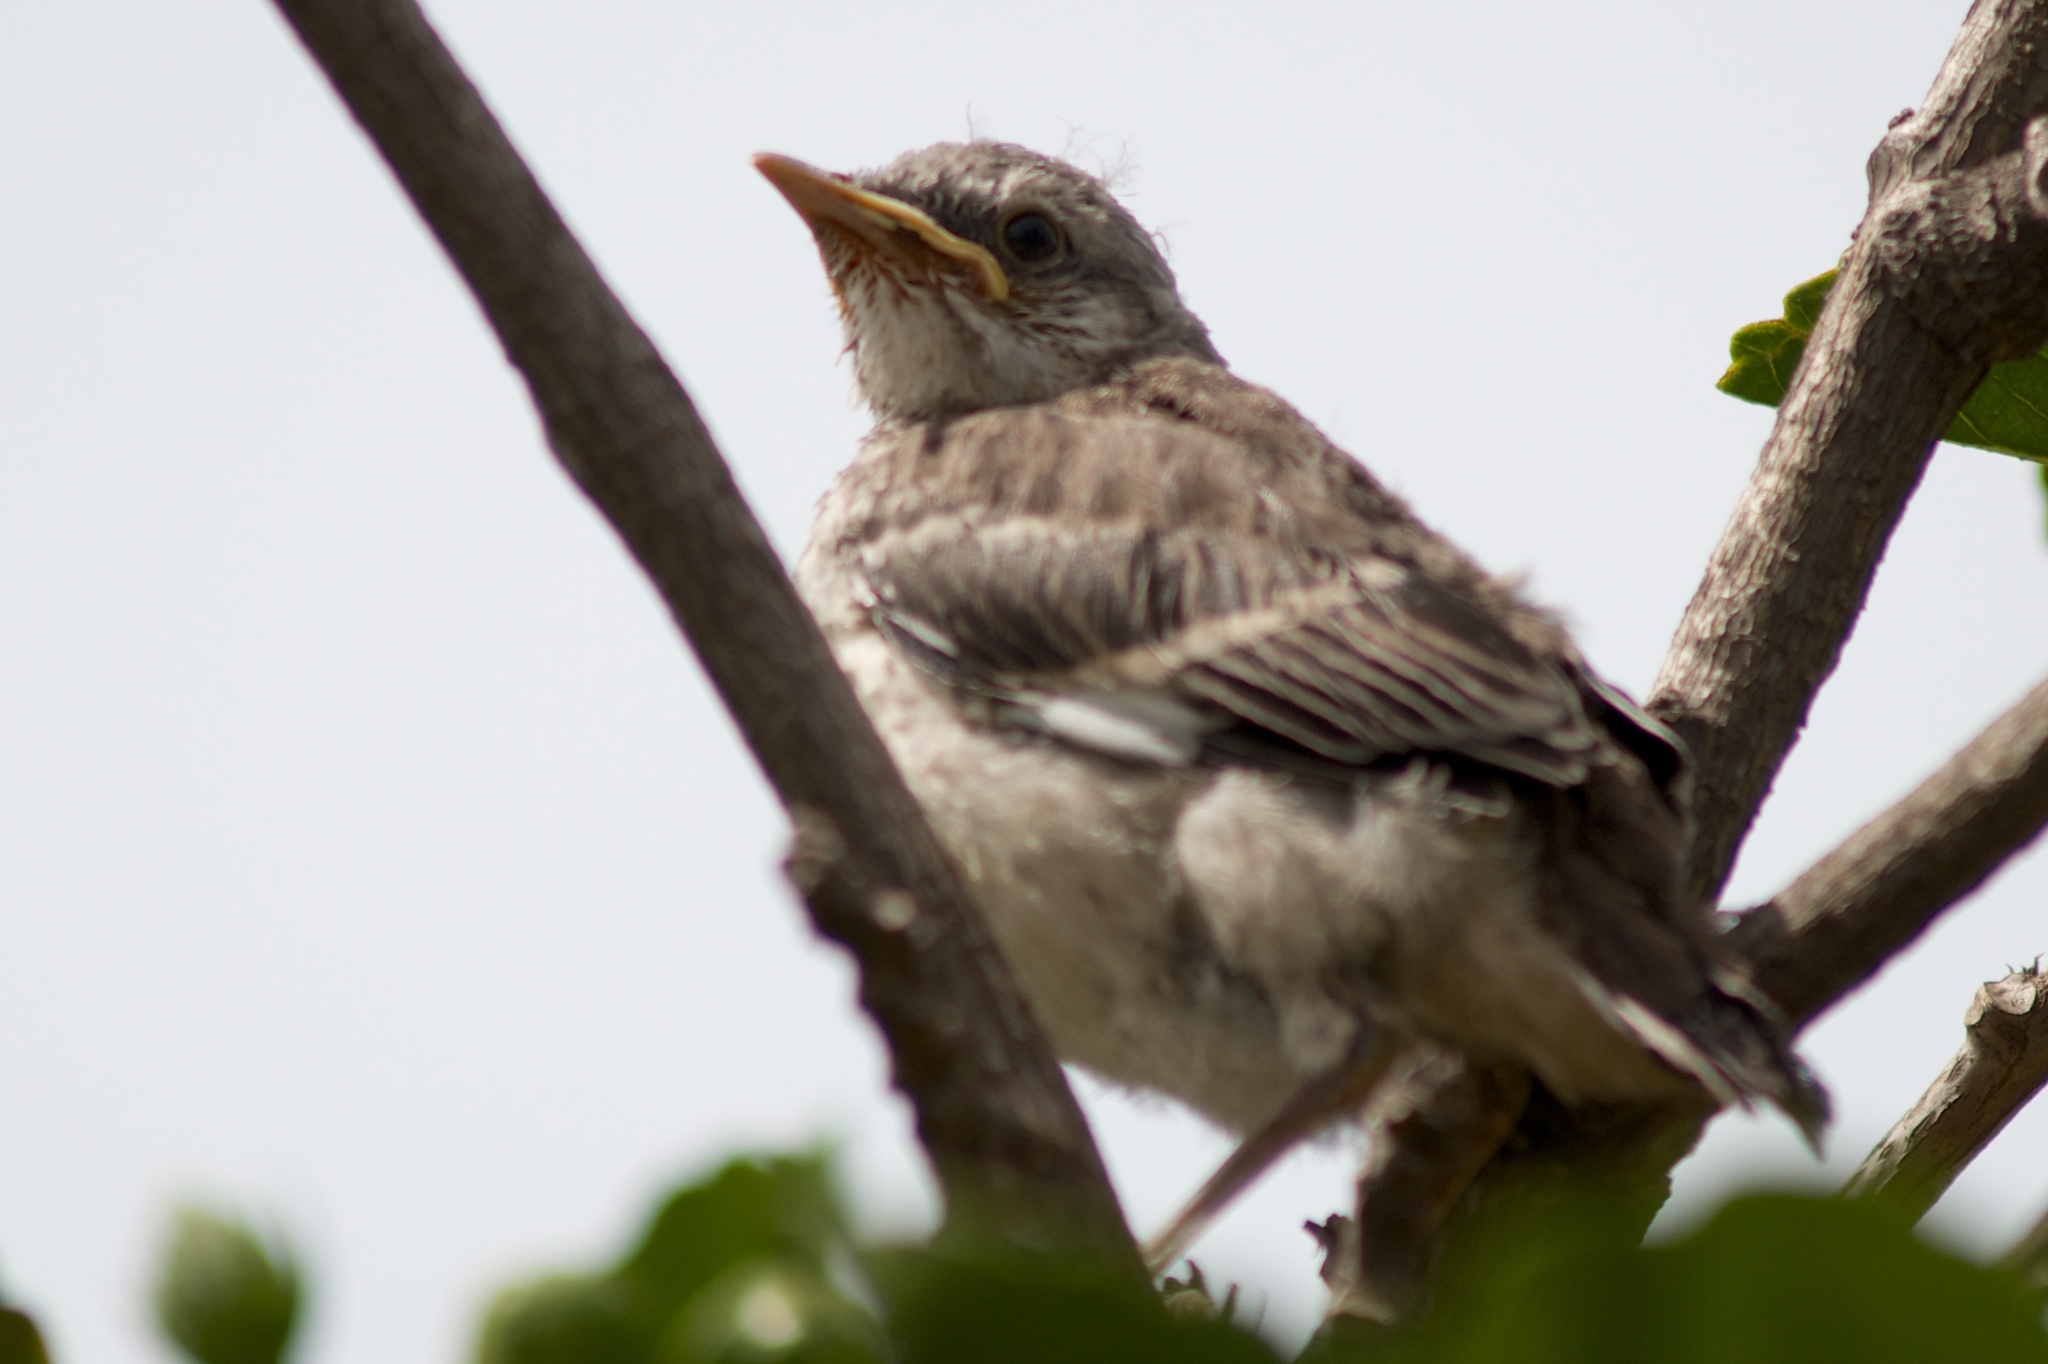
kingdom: Animalia
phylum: Chordata
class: Aves
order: Passeriformes
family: Mimidae
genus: Mimus
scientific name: Mimus polyglottos
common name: Northern mockingbird
